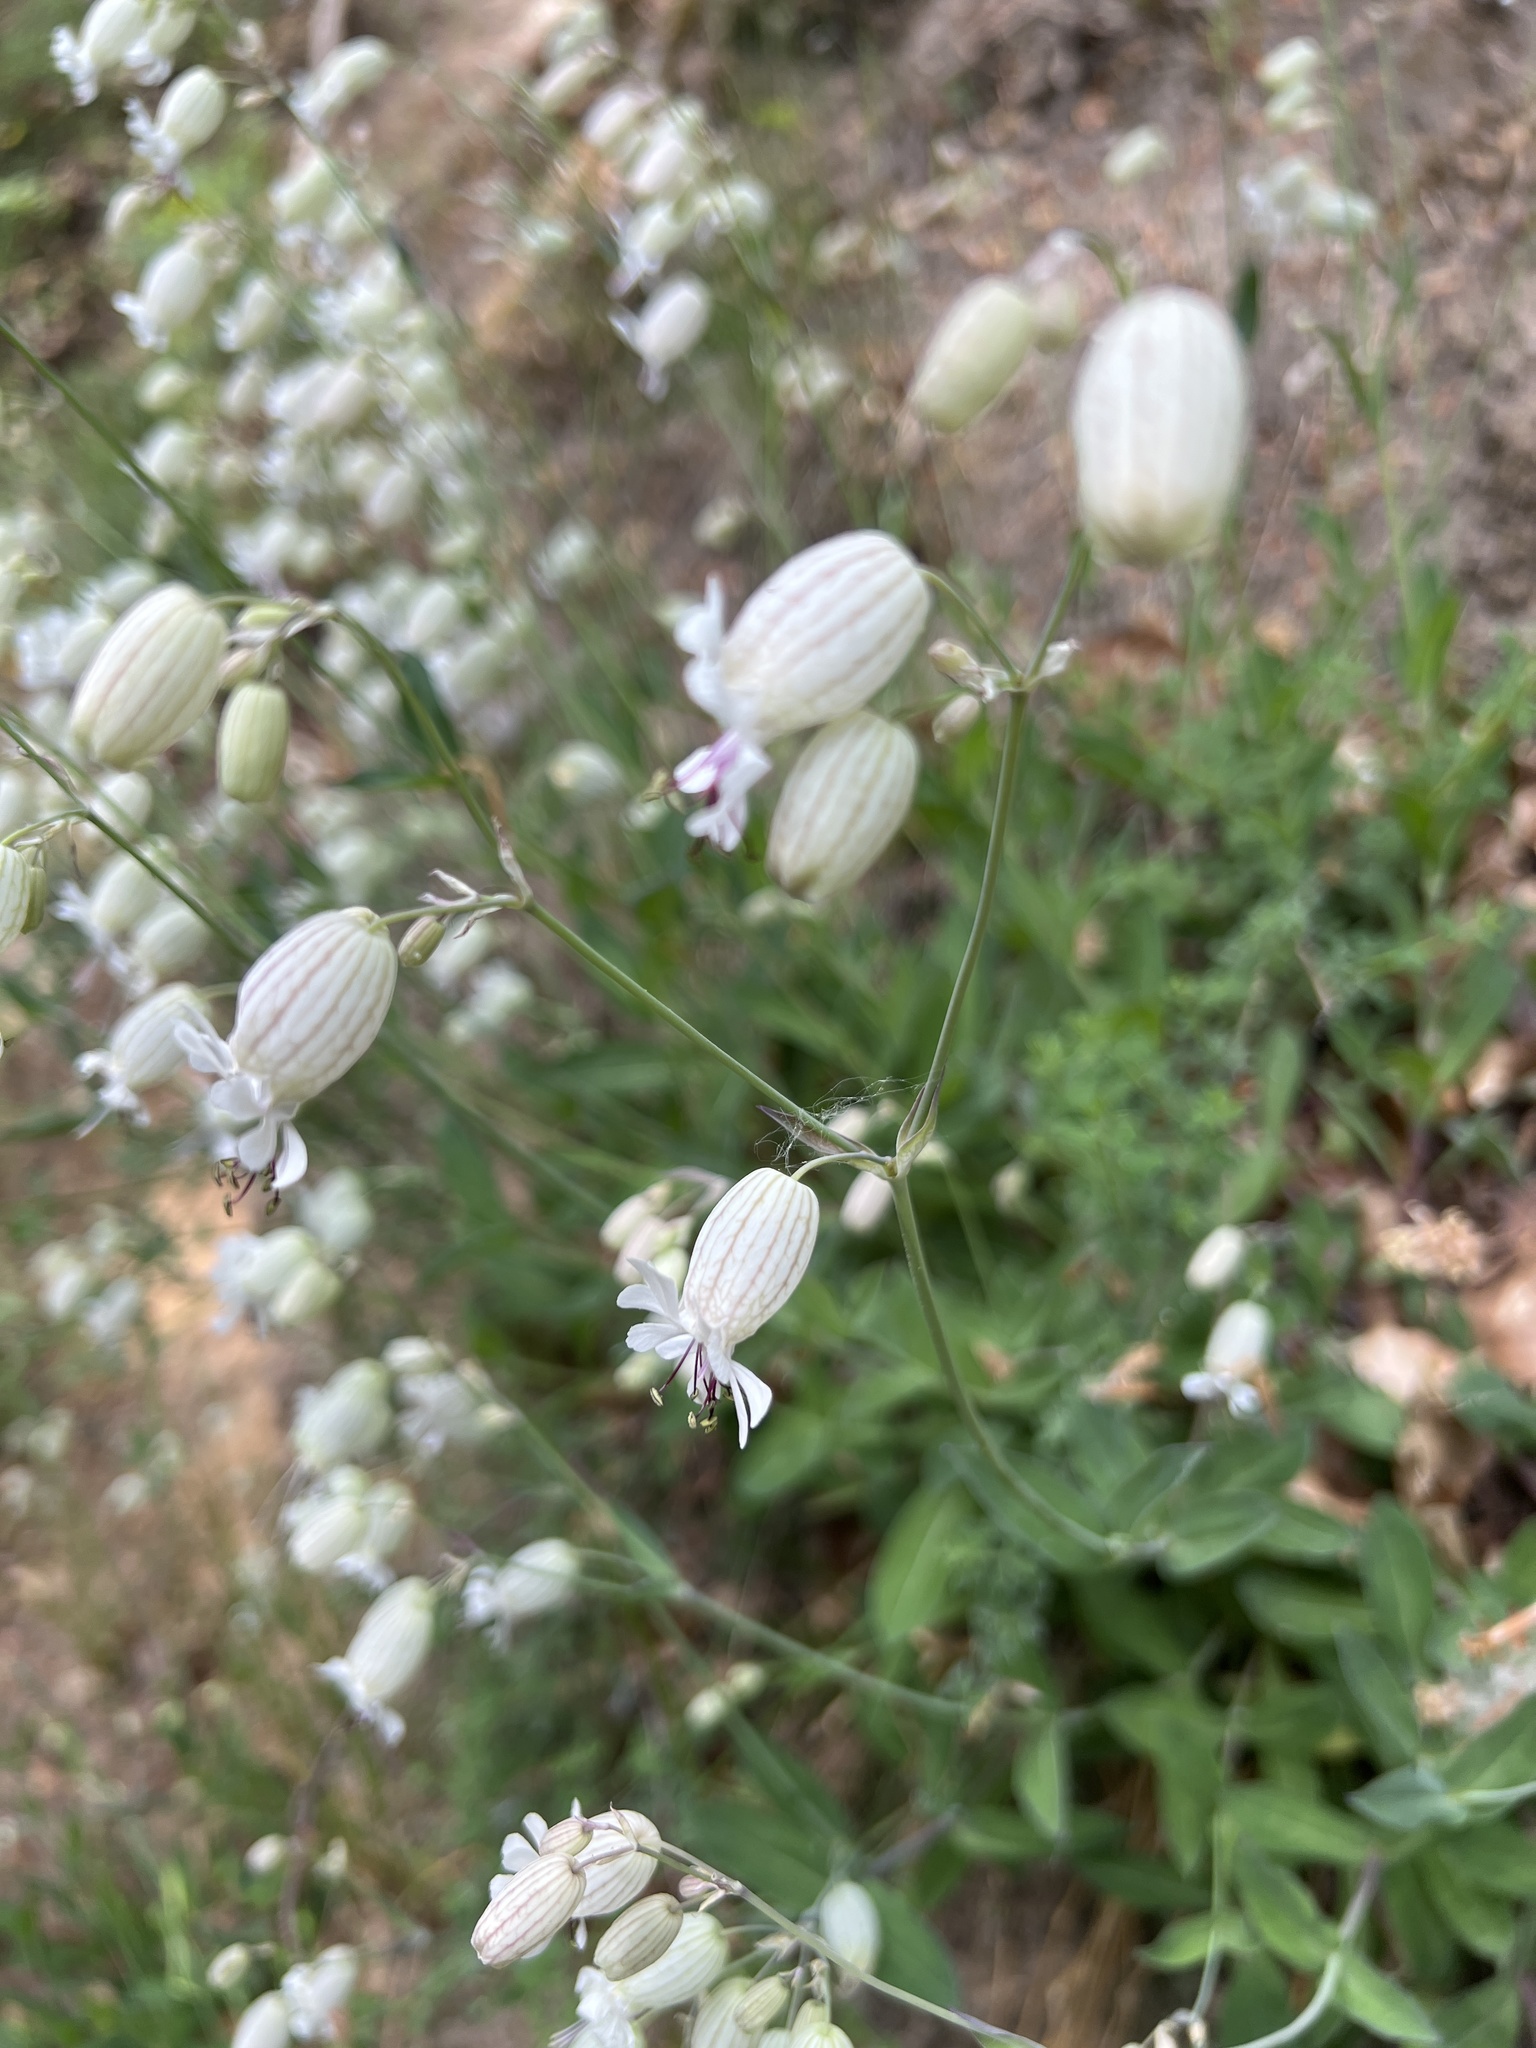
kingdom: Plantae
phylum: Tracheophyta
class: Magnoliopsida
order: Caryophyllales
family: Caryophyllaceae
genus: Silene
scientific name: Silene vulgaris
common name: Bladder campion
